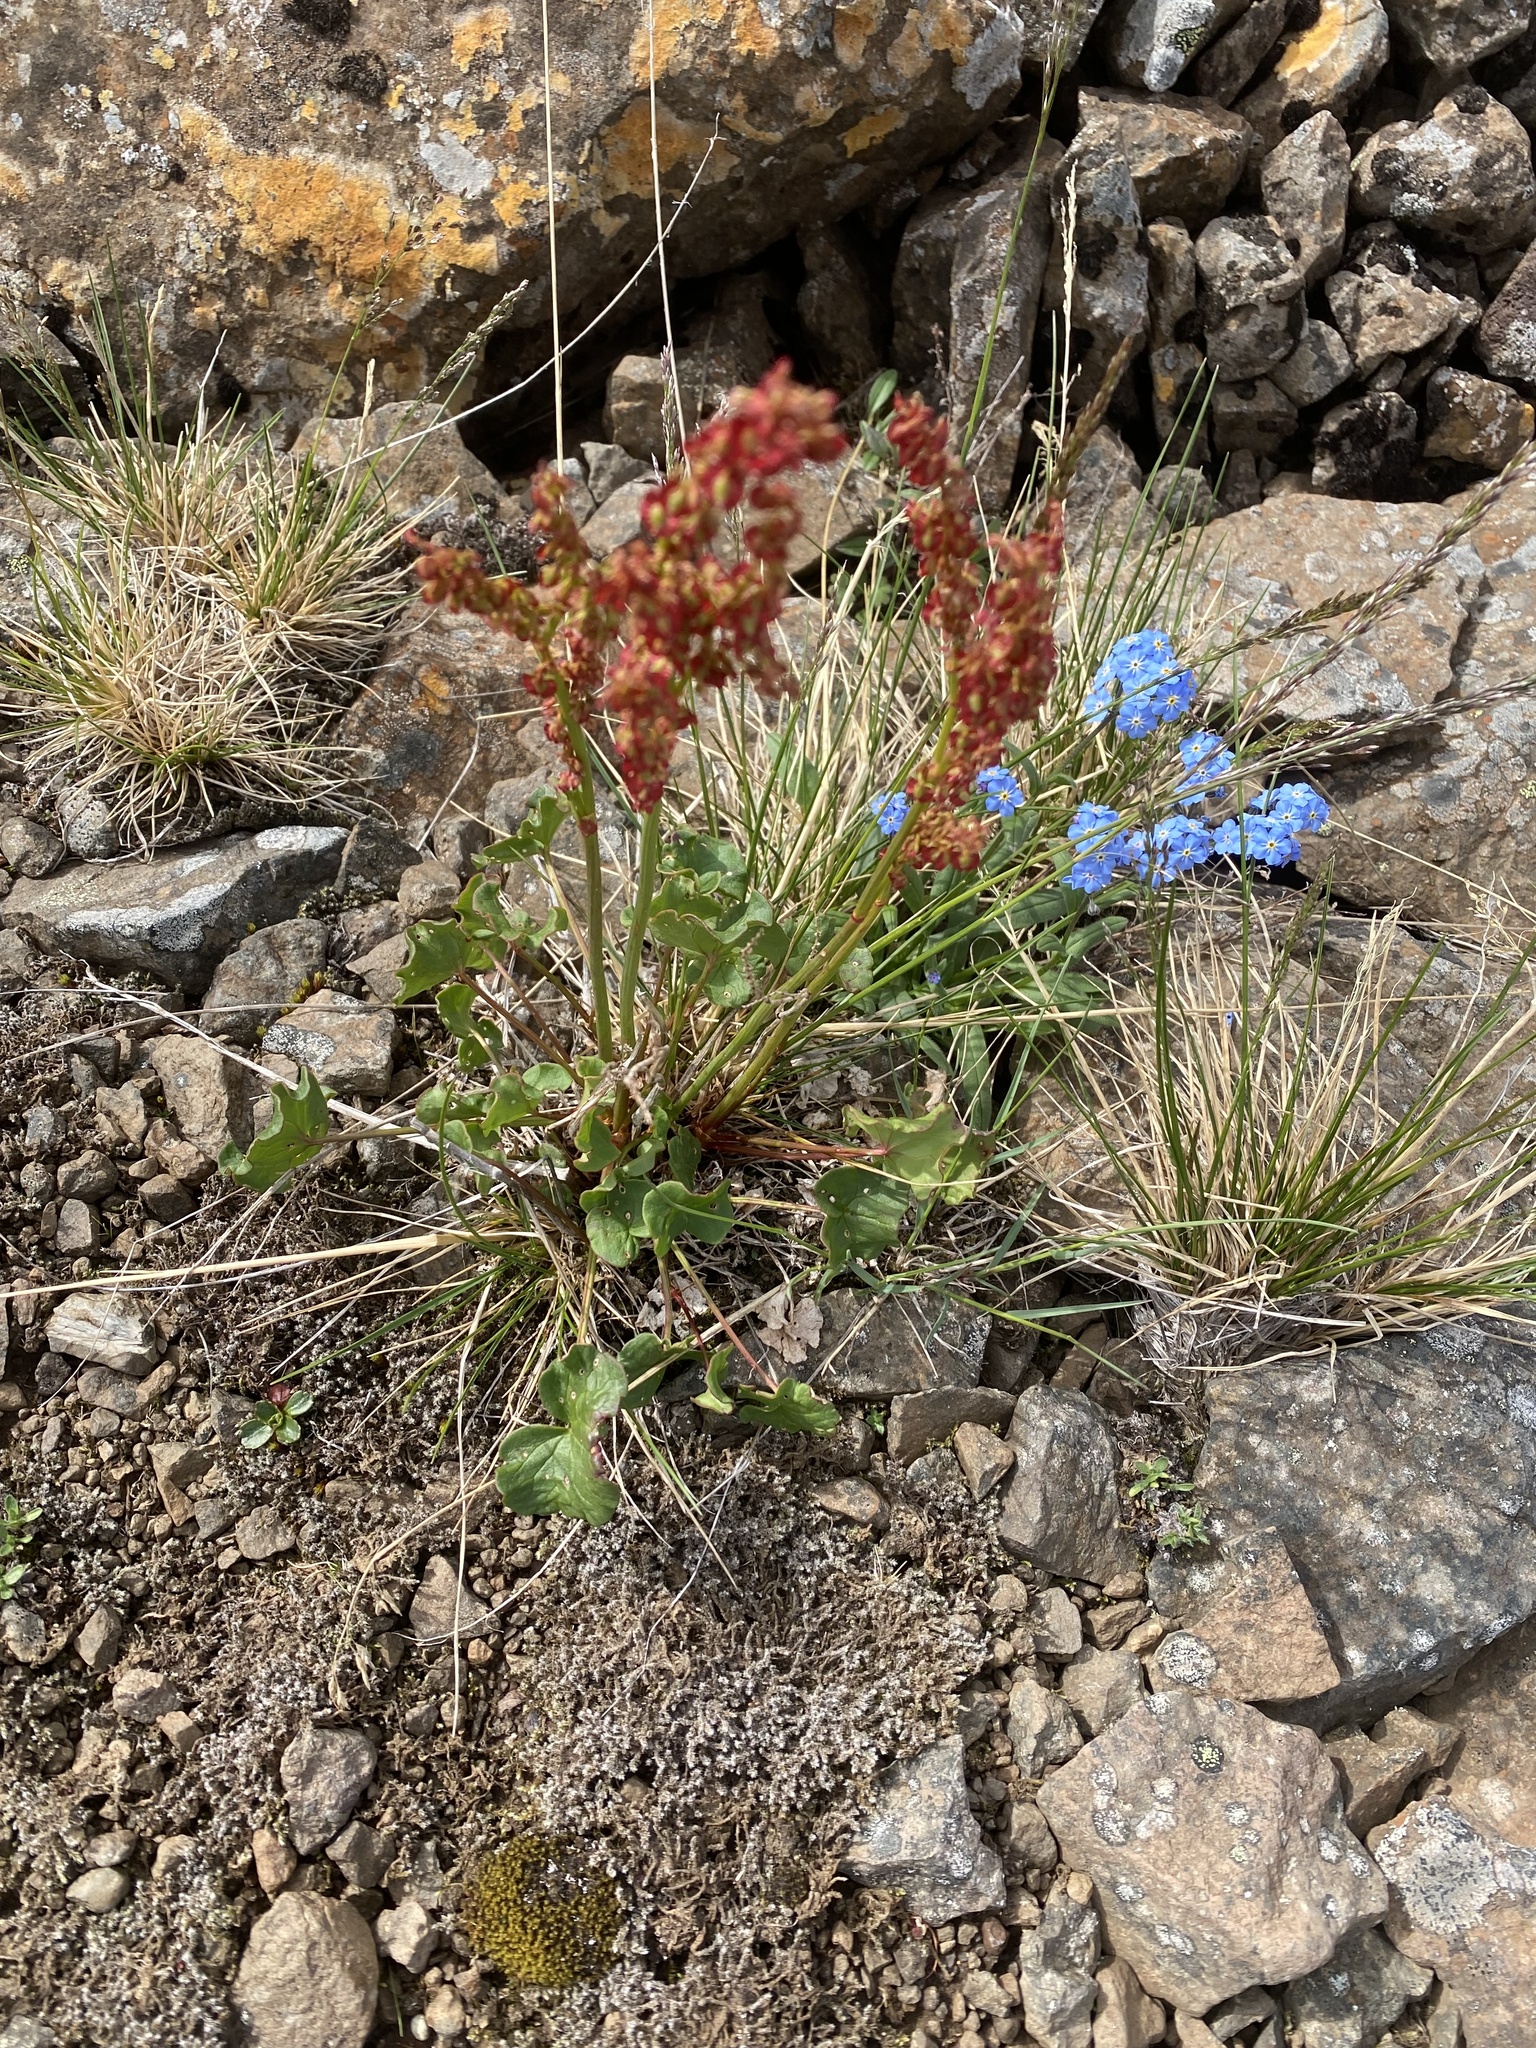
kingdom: Plantae
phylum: Tracheophyta
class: Magnoliopsida
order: Caryophyllales
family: Polygonaceae
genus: Oxyria
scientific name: Oxyria digyna
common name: Alpine mountain-sorrel
